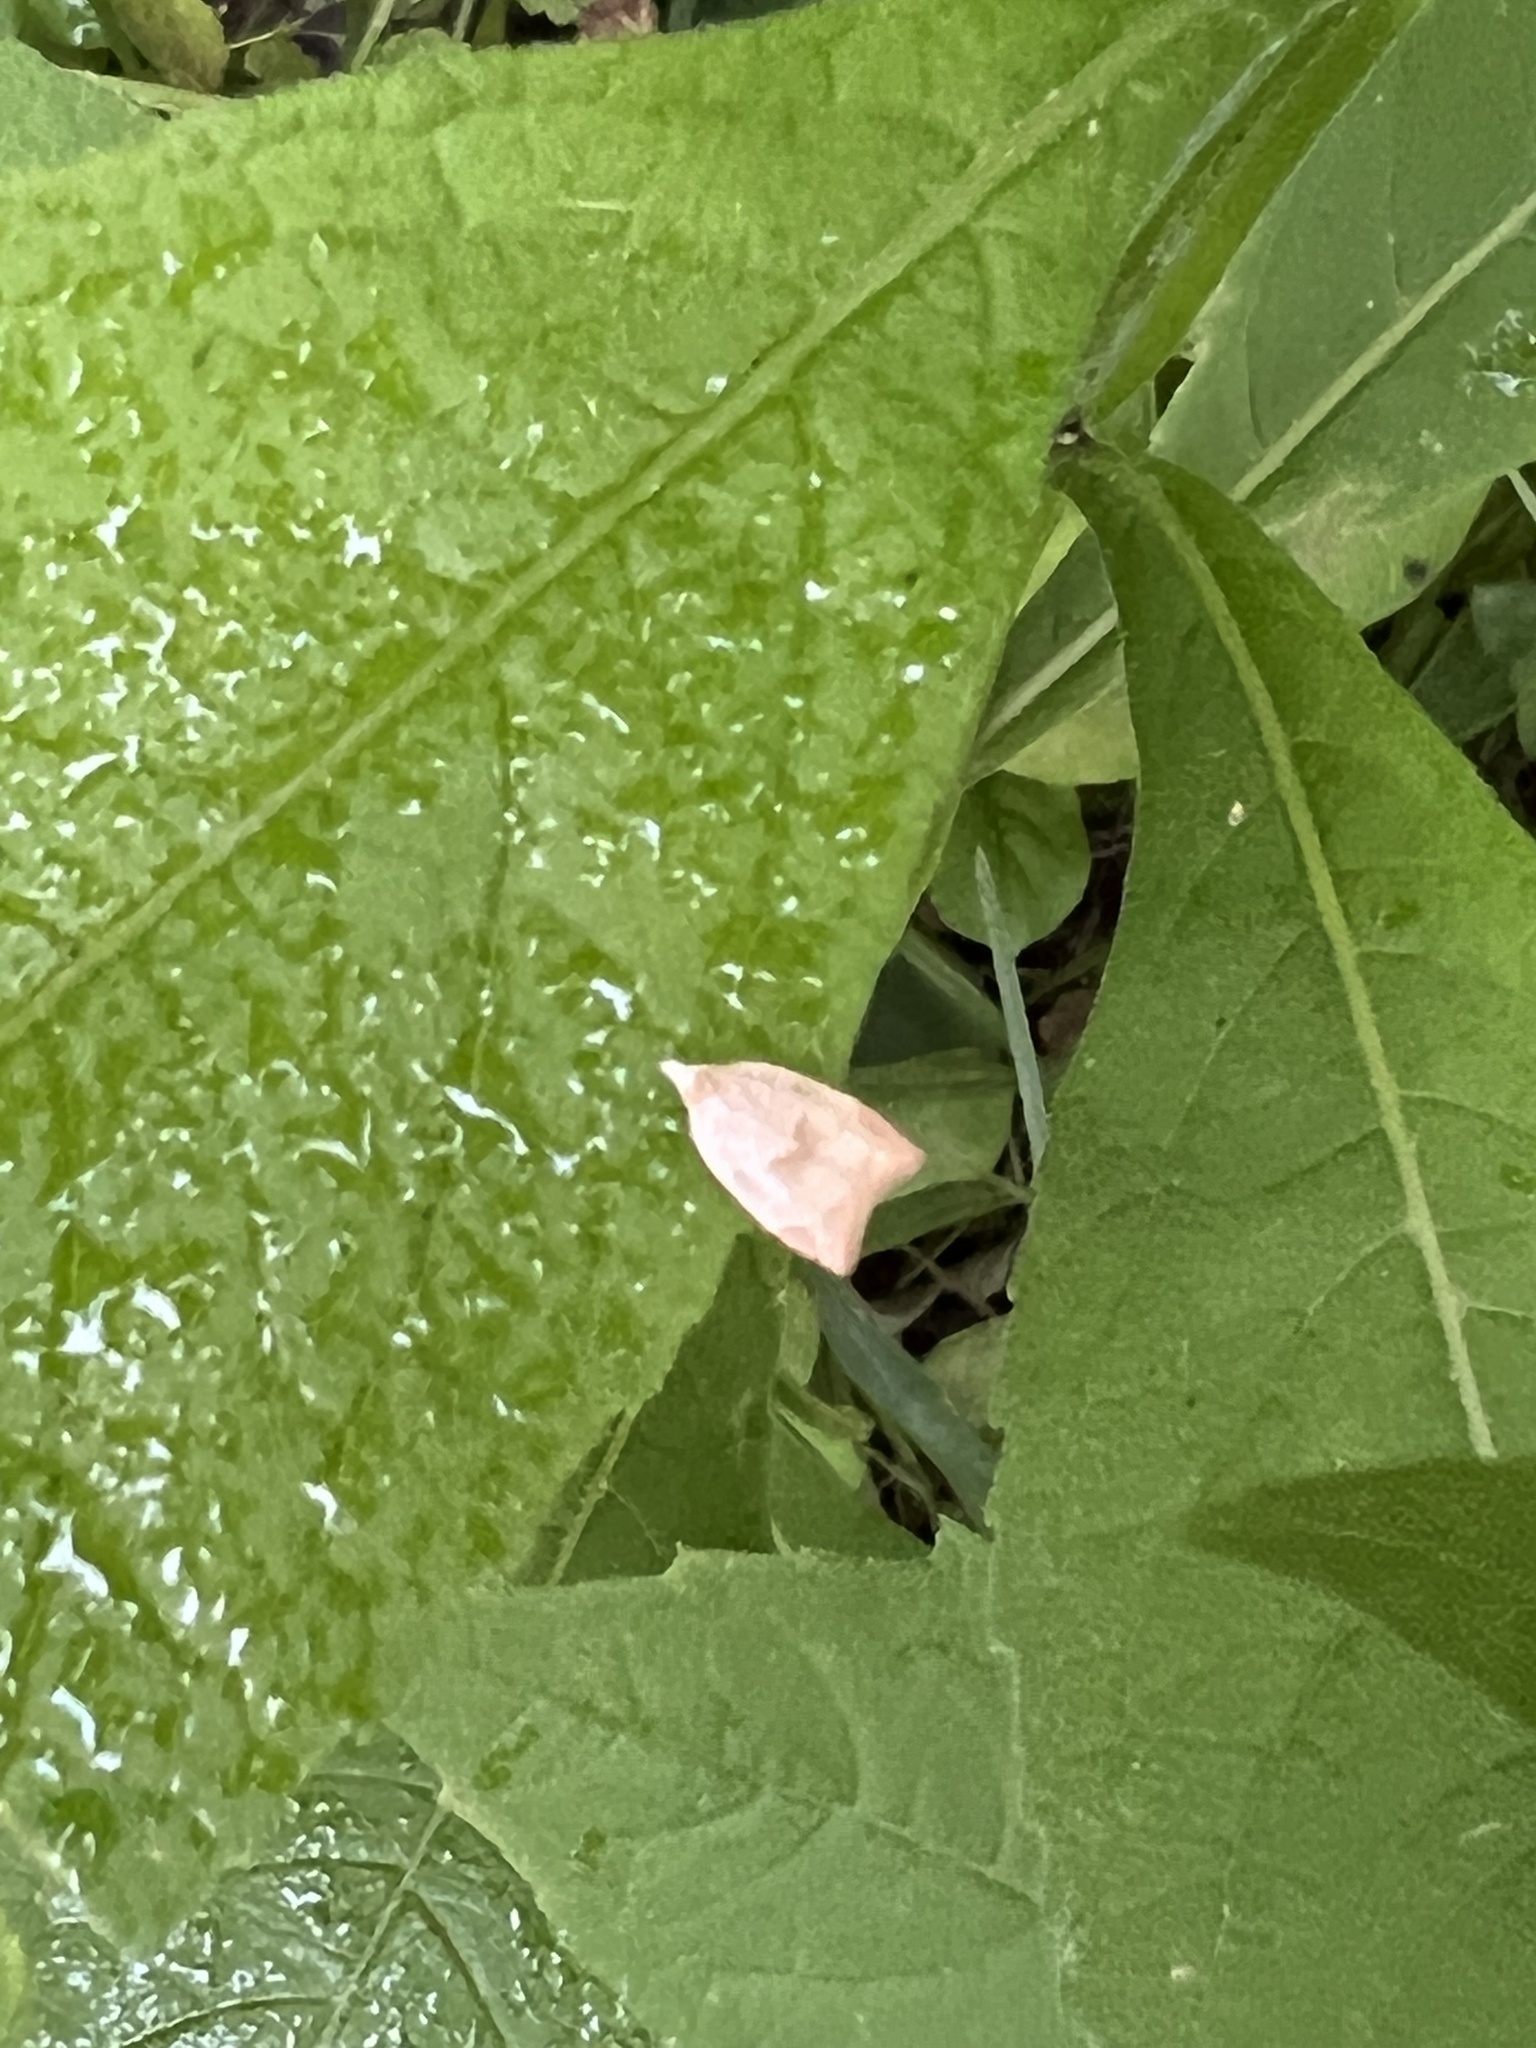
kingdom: Animalia
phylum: Arthropoda
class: Insecta
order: Lepidoptera
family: Tortricidae
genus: Coelostathma
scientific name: Coelostathma discopunctana
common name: Batman moth
